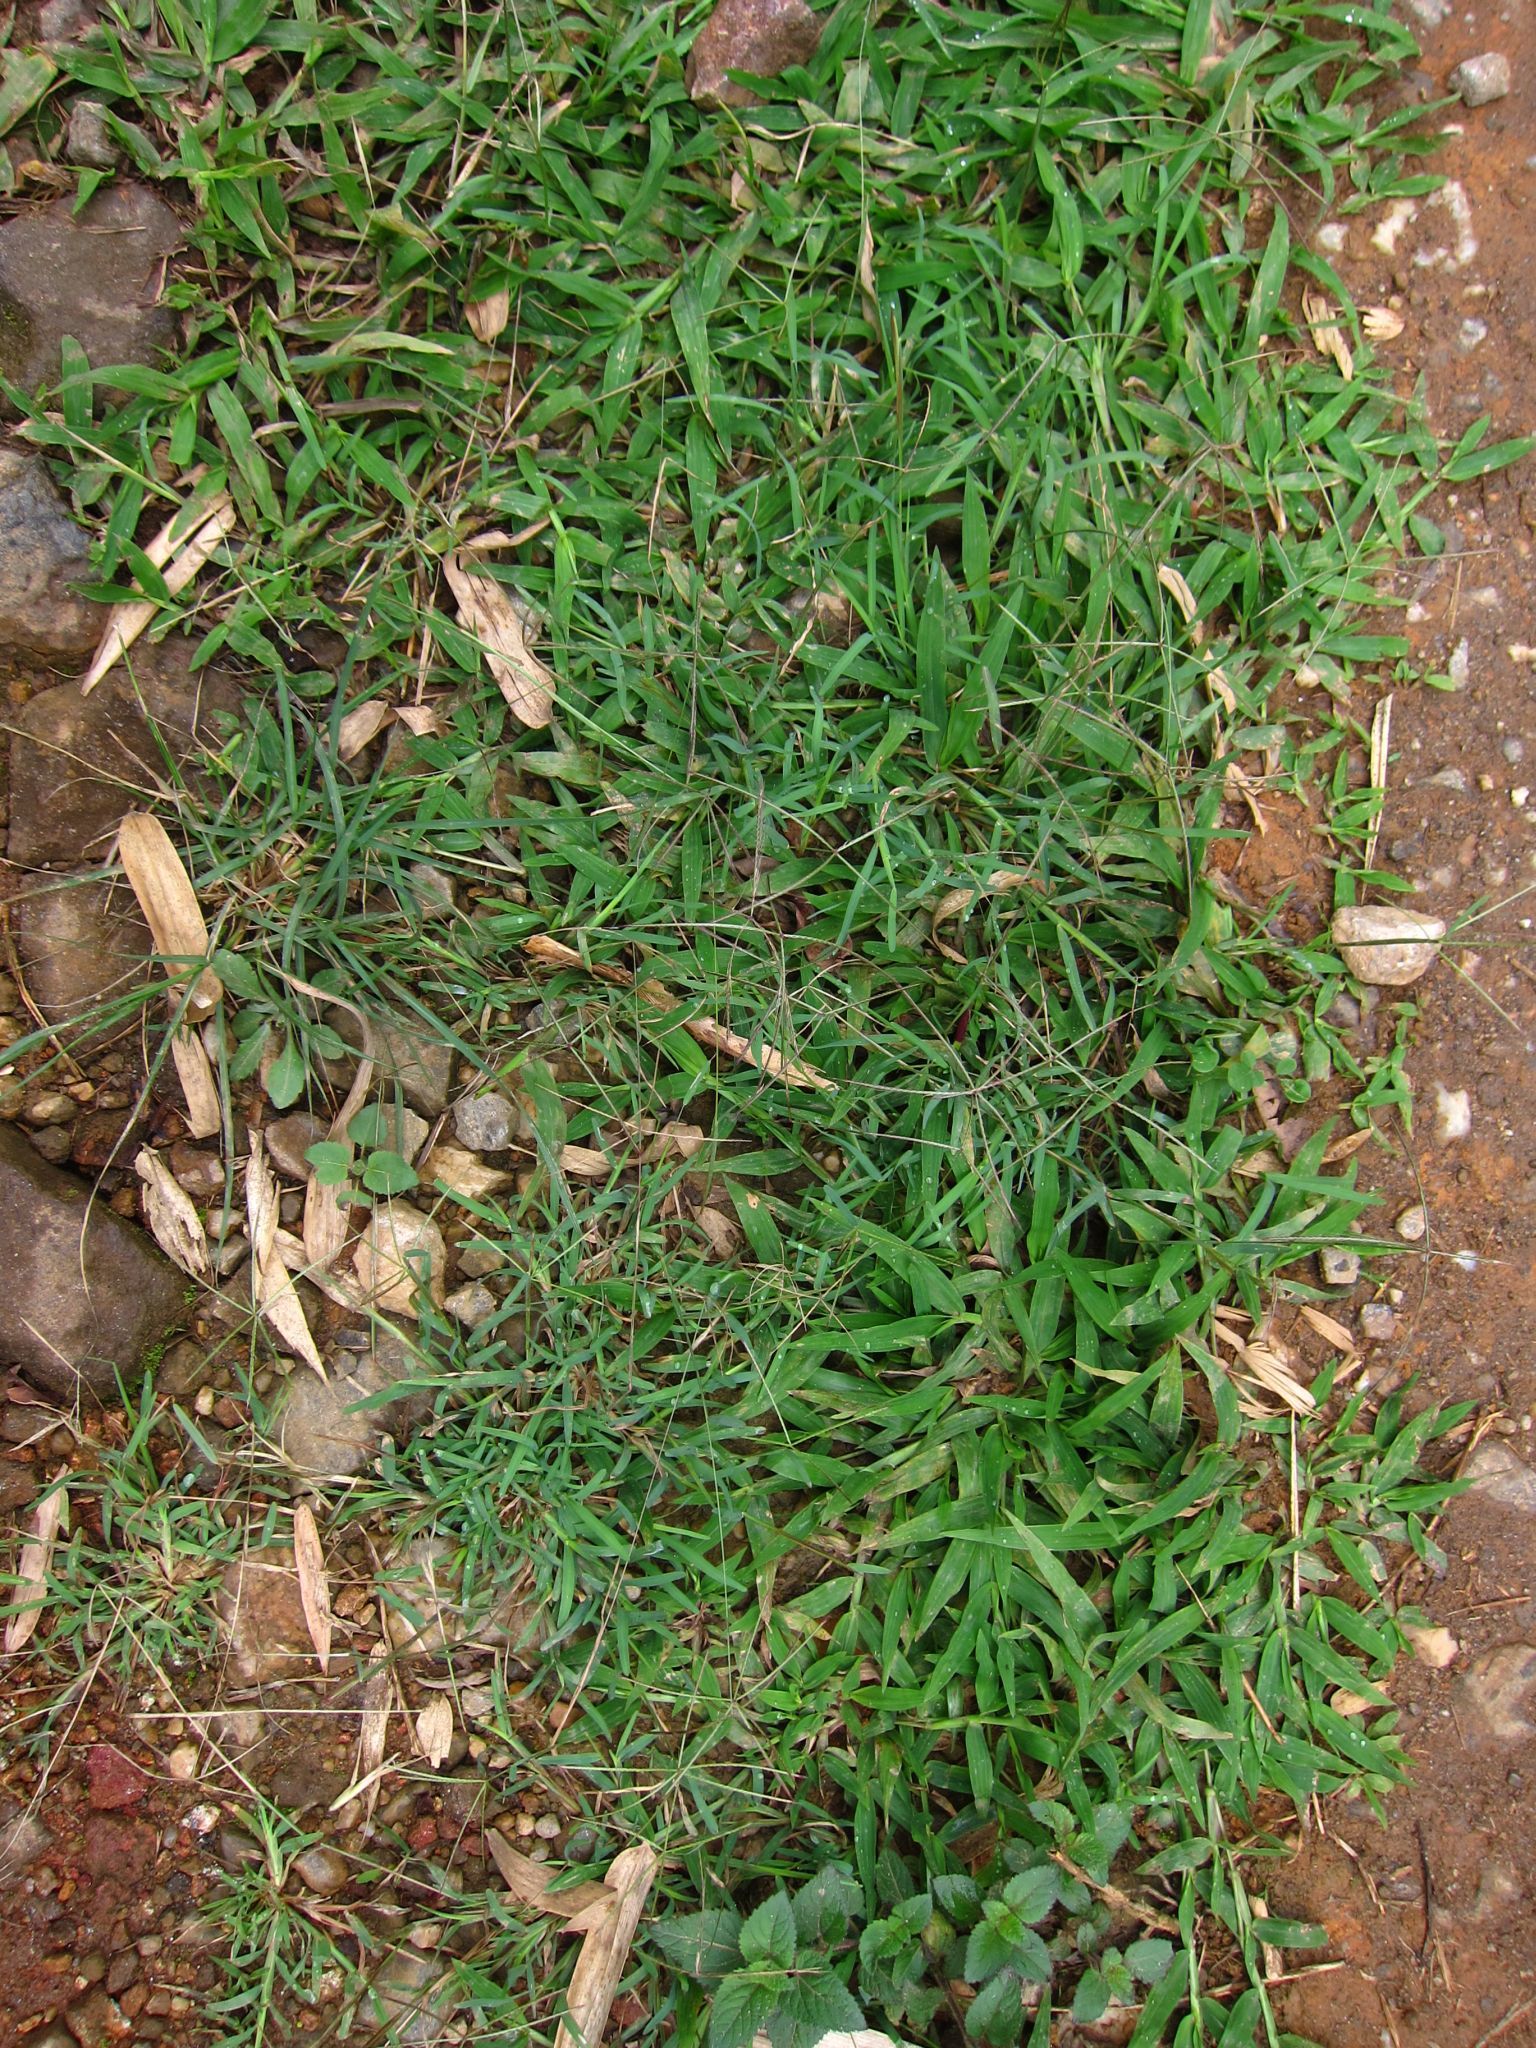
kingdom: Plantae
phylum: Tracheophyta
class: Liliopsida
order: Poales
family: Poaceae
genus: Chloris
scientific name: Chloris pycnothrix
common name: Spiderweb chloris
